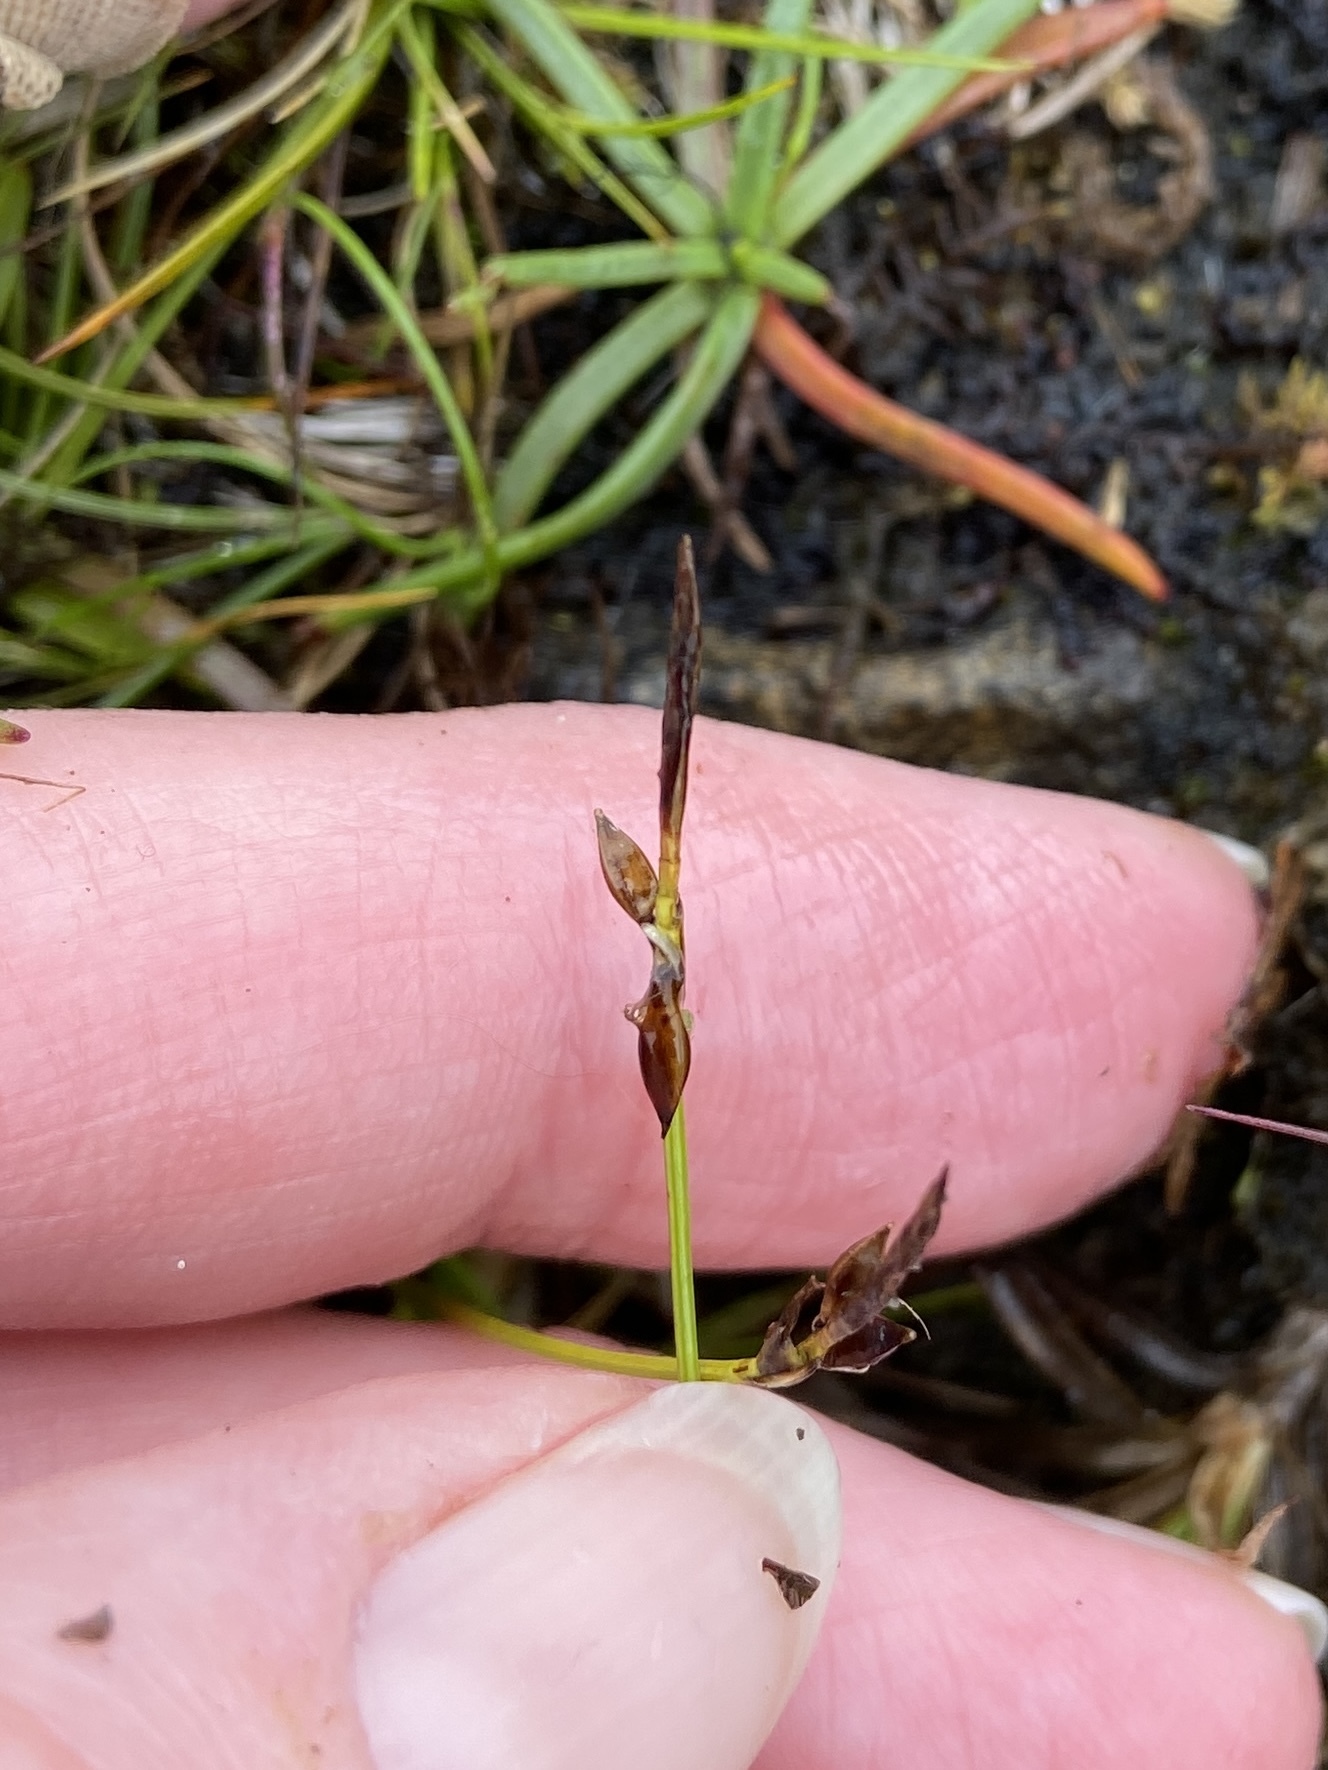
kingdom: Plantae
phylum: Tracheophyta
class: Liliopsida
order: Poales
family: Cyperaceae
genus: Carex
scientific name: Carex pulicaris
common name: Flea sedge
